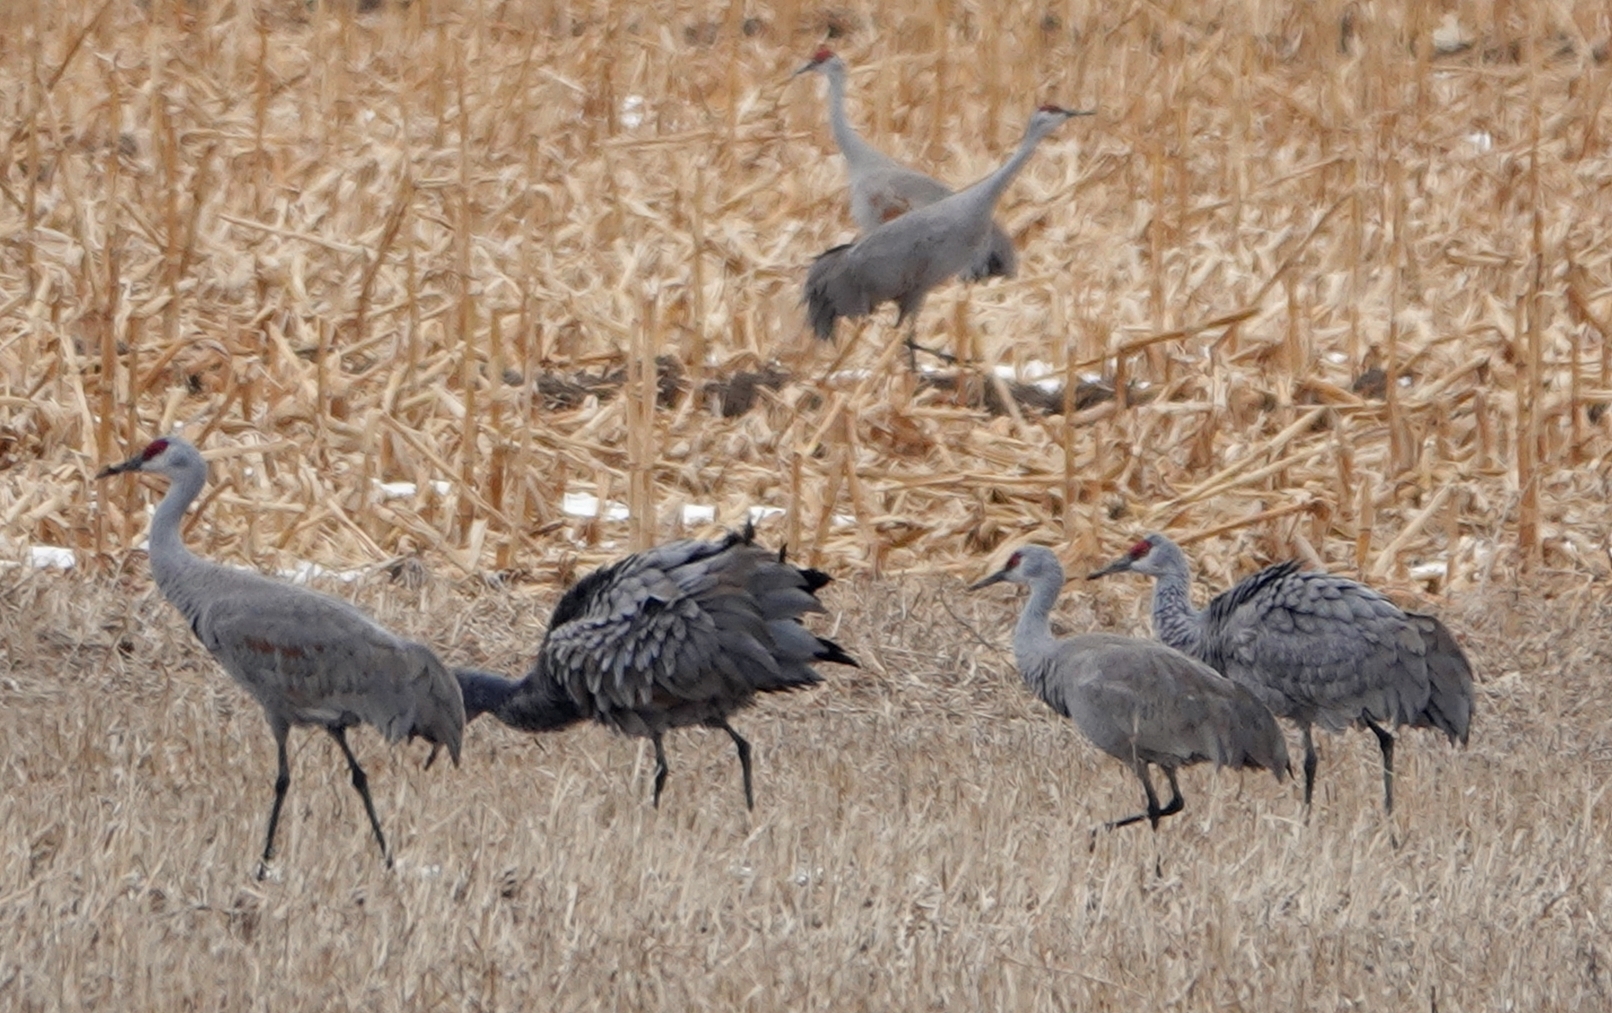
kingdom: Animalia
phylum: Chordata
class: Aves
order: Gruiformes
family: Gruidae
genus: Grus
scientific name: Grus canadensis
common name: Sandhill crane
